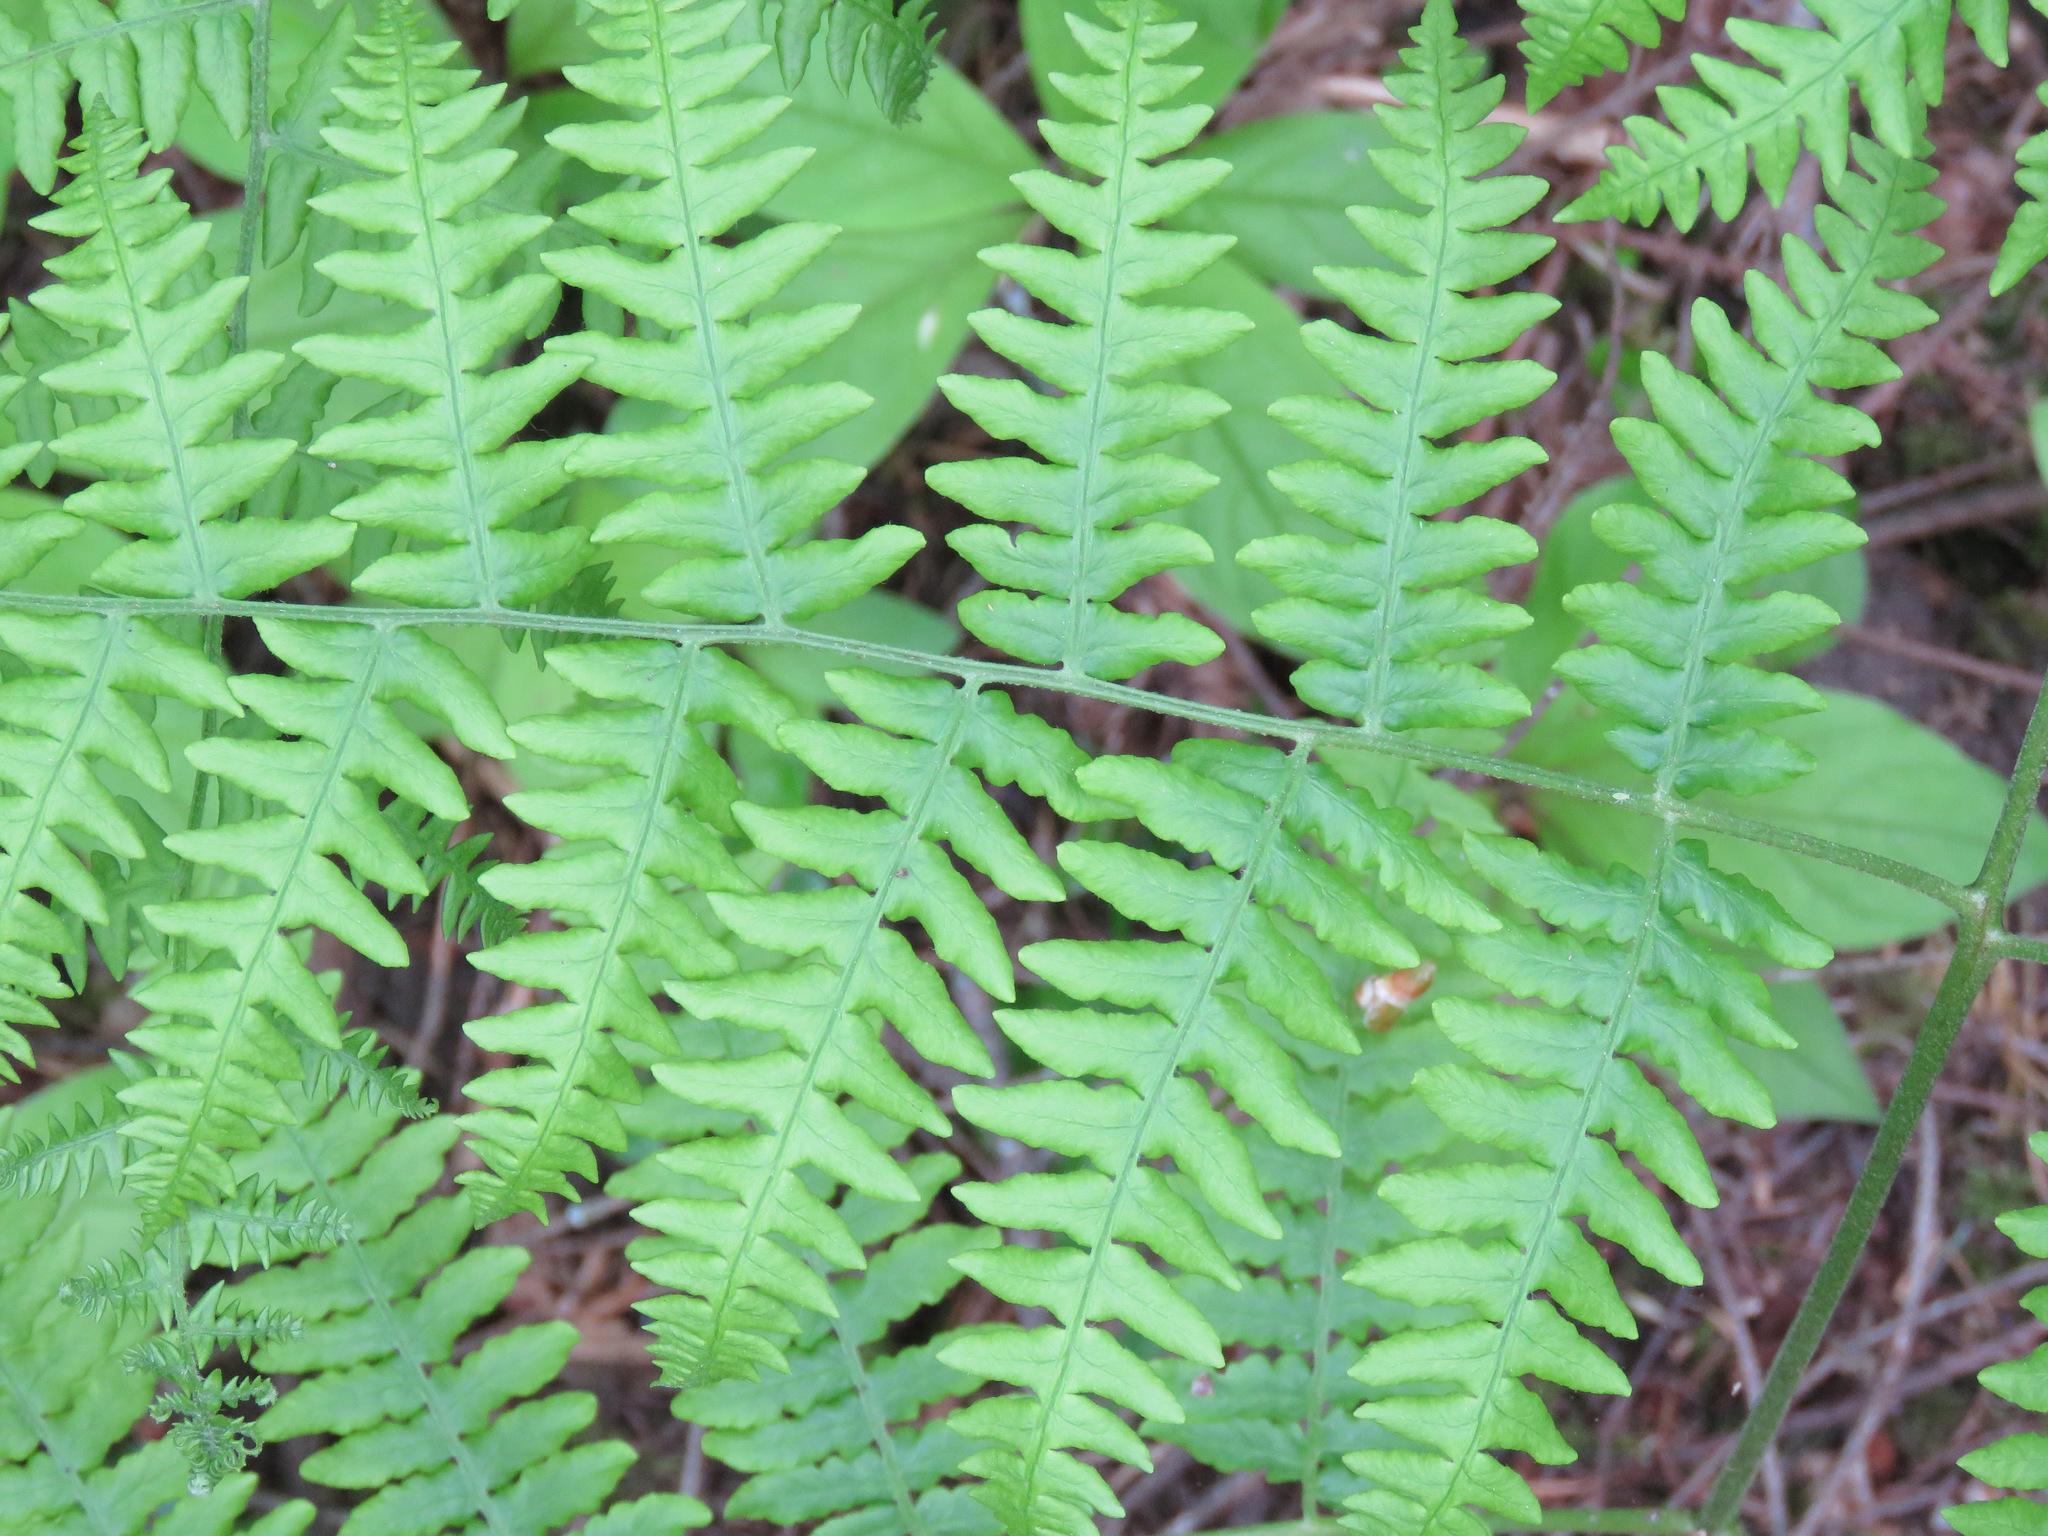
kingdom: Plantae
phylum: Tracheophyta
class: Polypodiopsida
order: Polypodiales
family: Dennstaedtiaceae
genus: Pteridium
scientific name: Pteridium aquilinum
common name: Bracken
